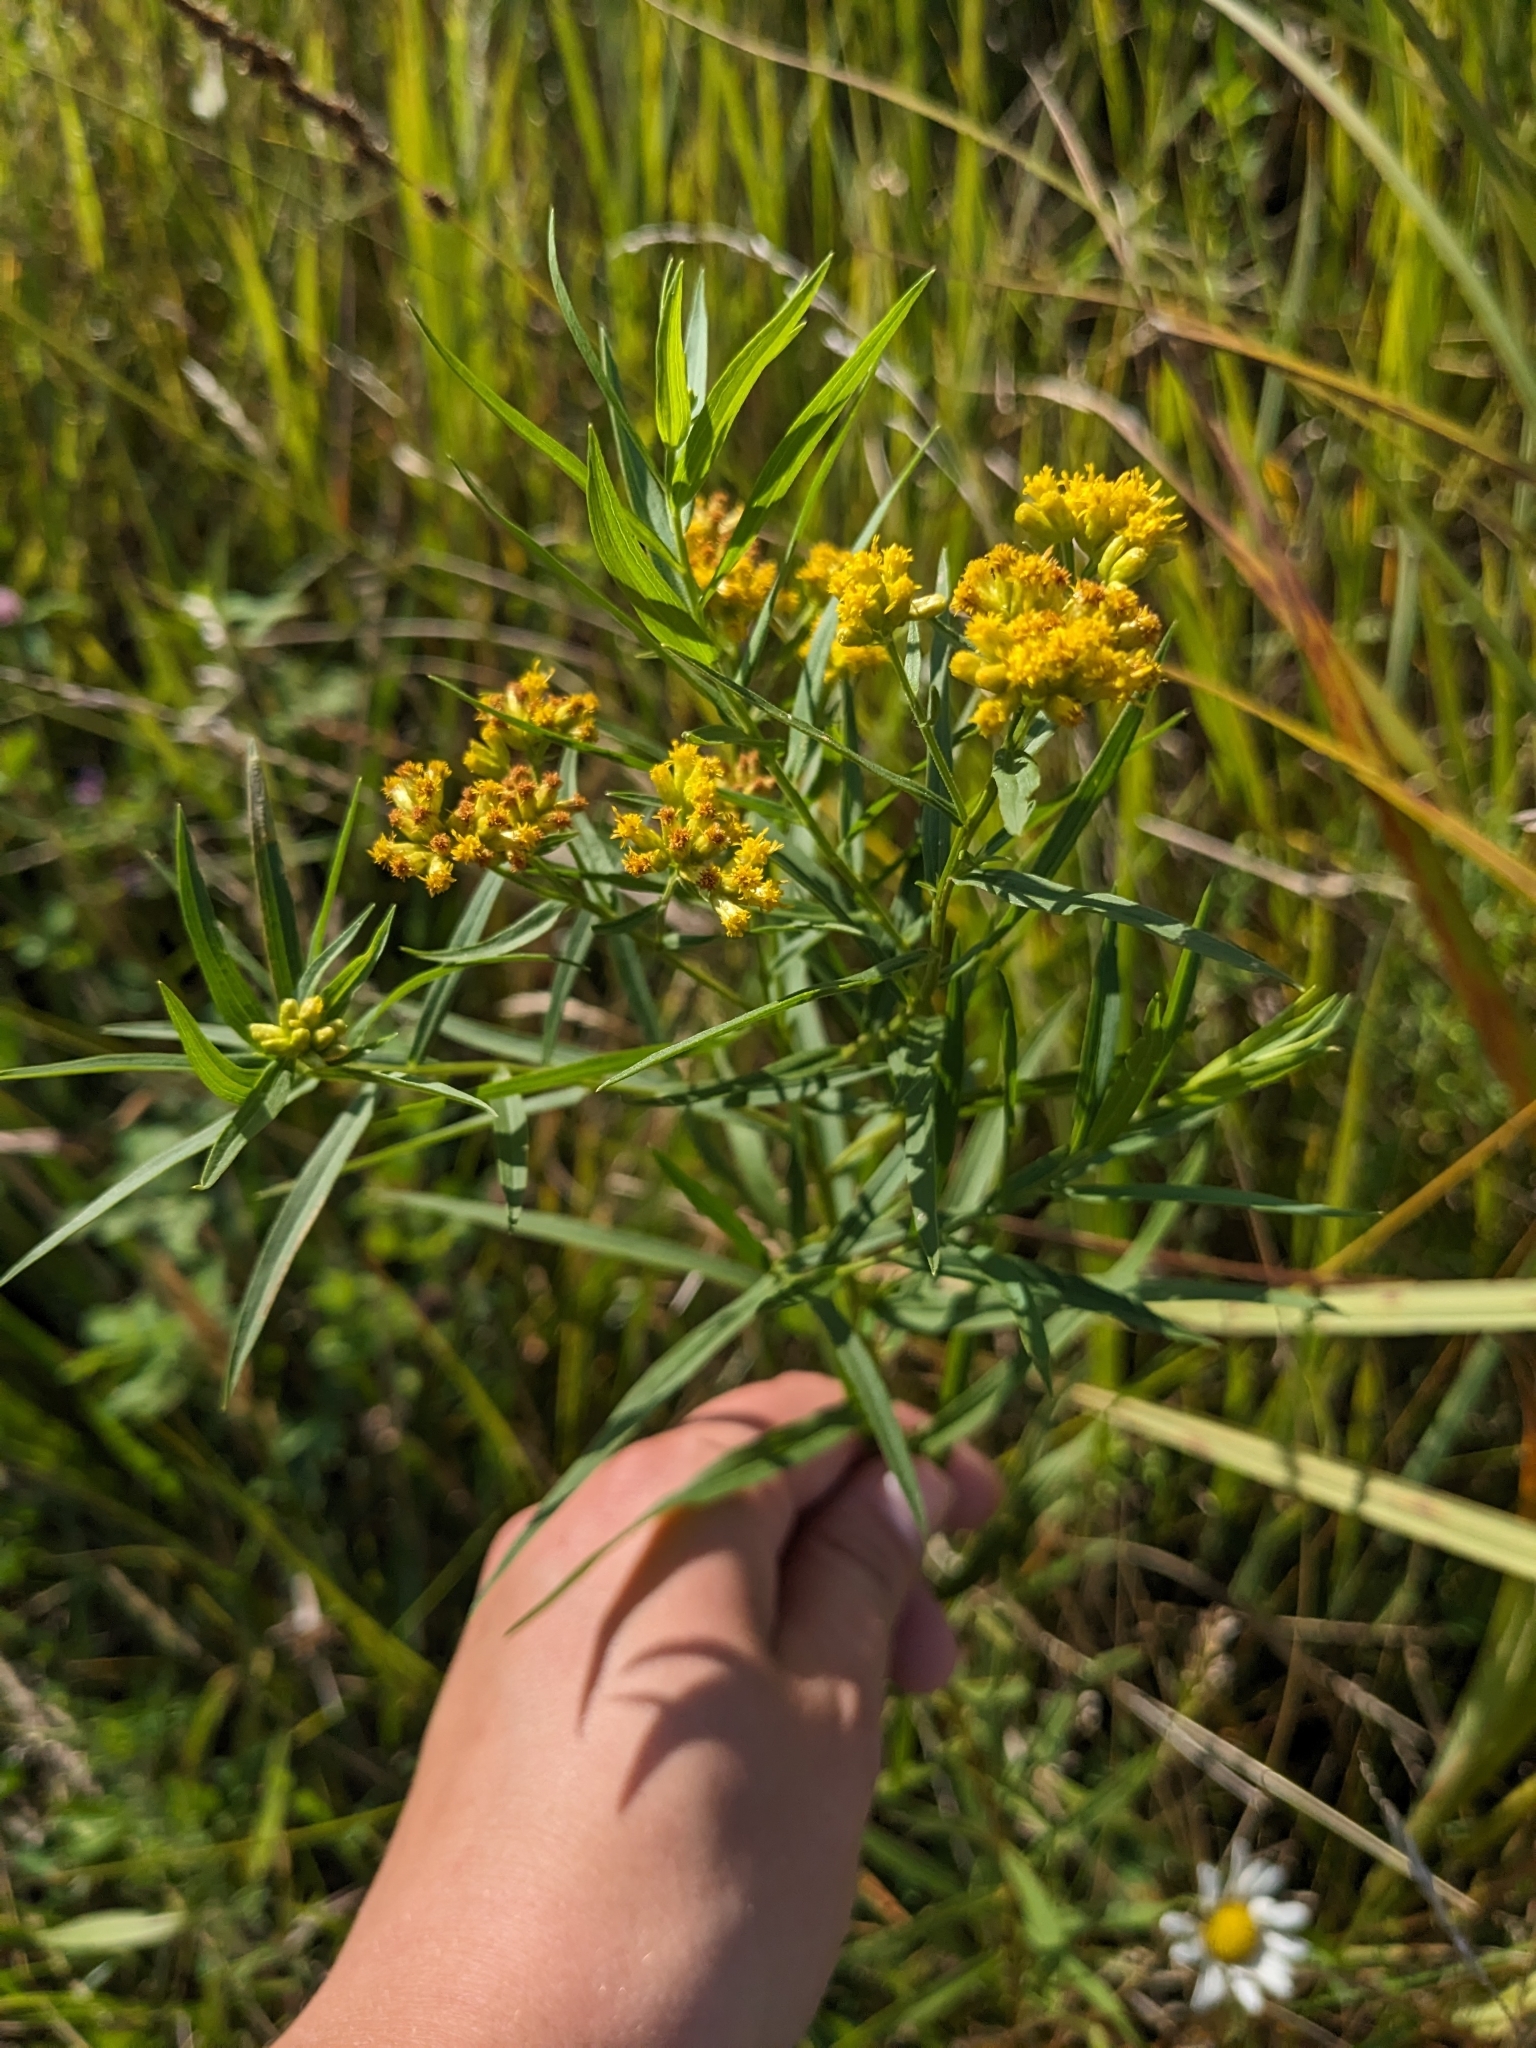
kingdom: Plantae
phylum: Tracheophyta
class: Magnoliopsida
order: Asterales
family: Asteraceae
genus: Euthamia
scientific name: Euthamia graminifolia
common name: Common goldentop
